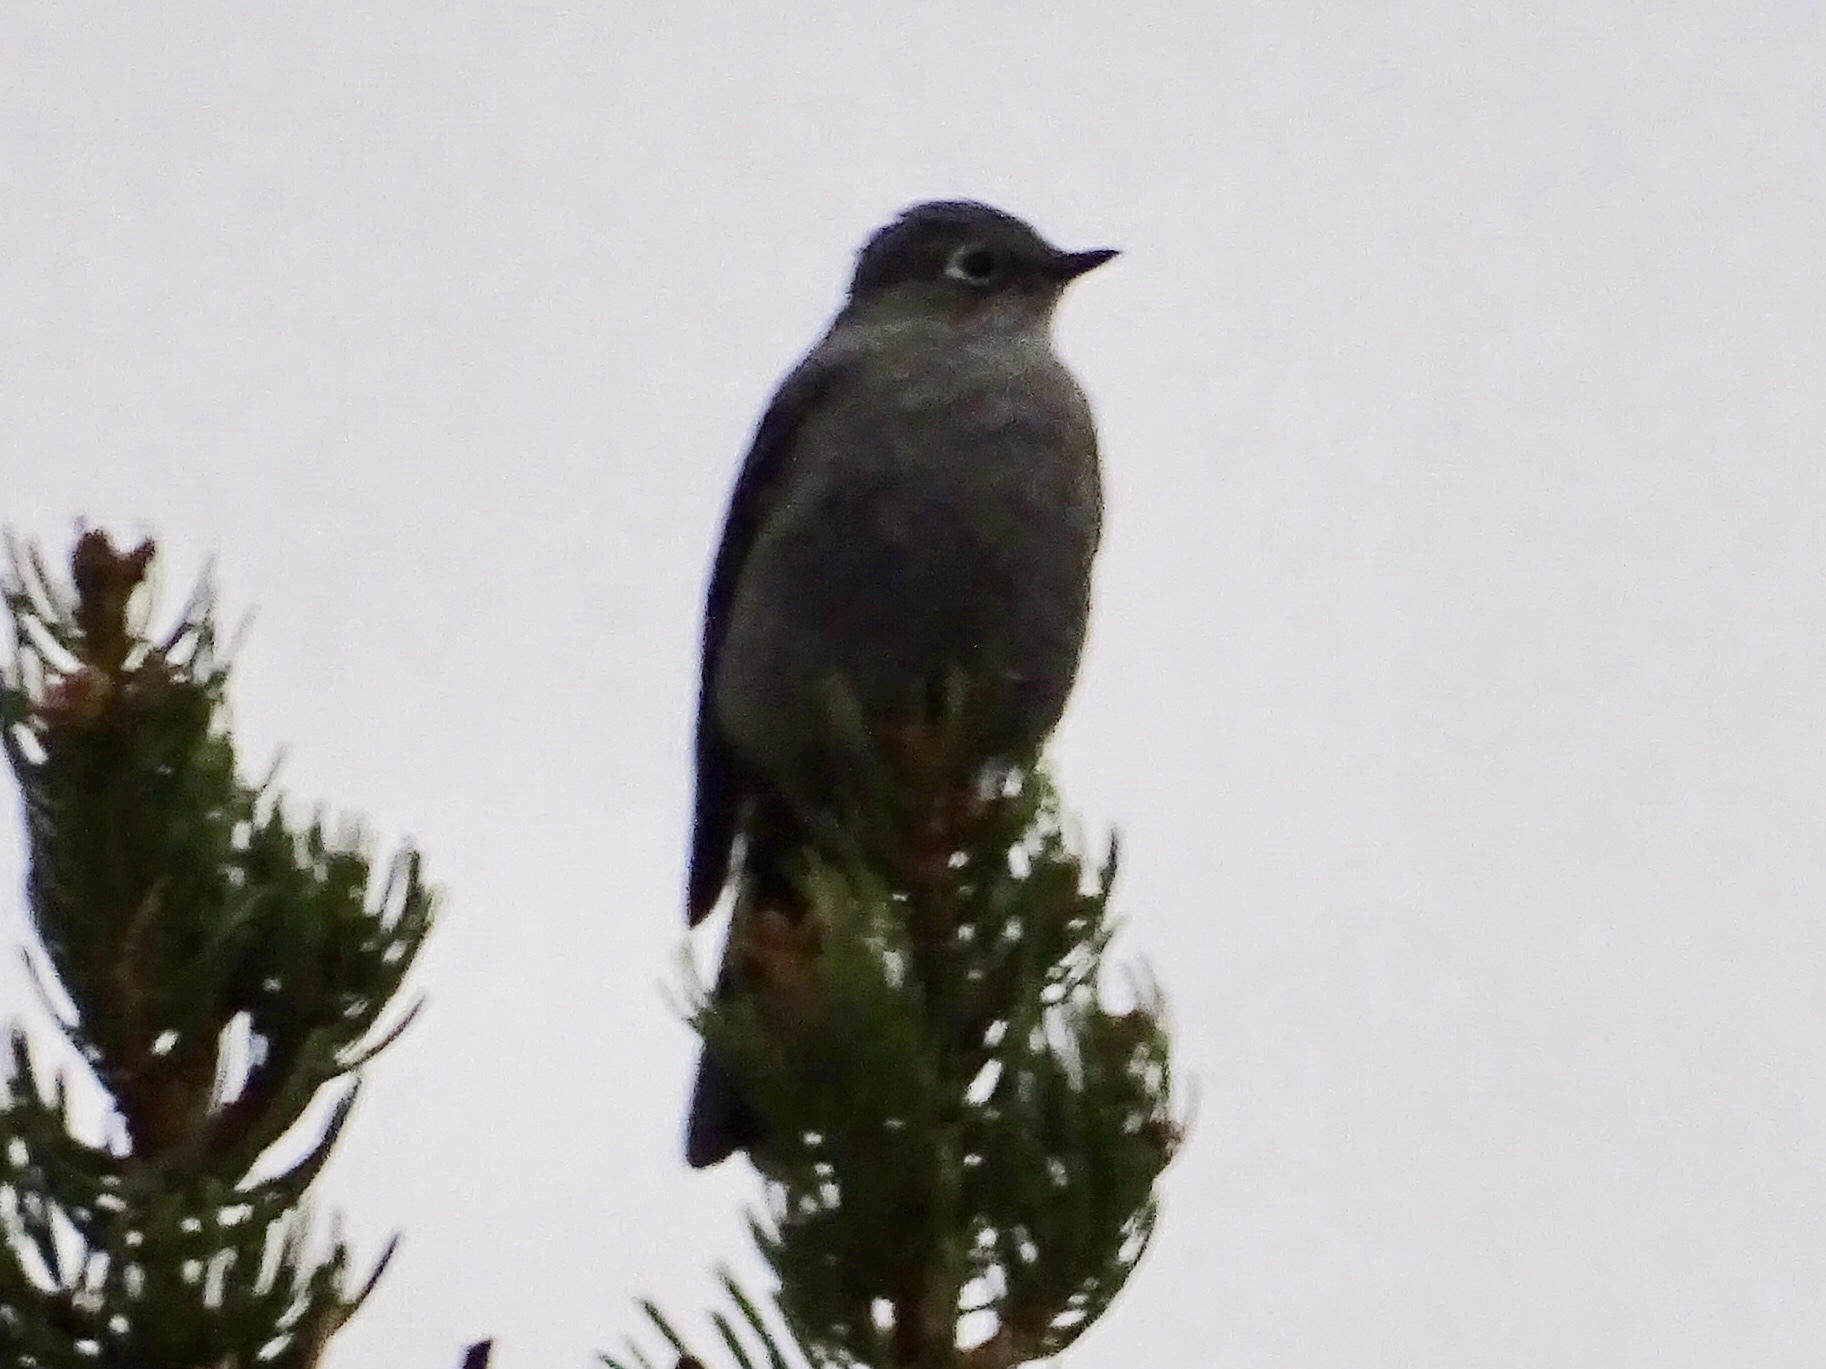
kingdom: Animalia
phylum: Chordata
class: Aves
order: Passeriformes
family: Turdidae
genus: Myadestes
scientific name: Myadestes townsendi
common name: Townsend's solitaire
